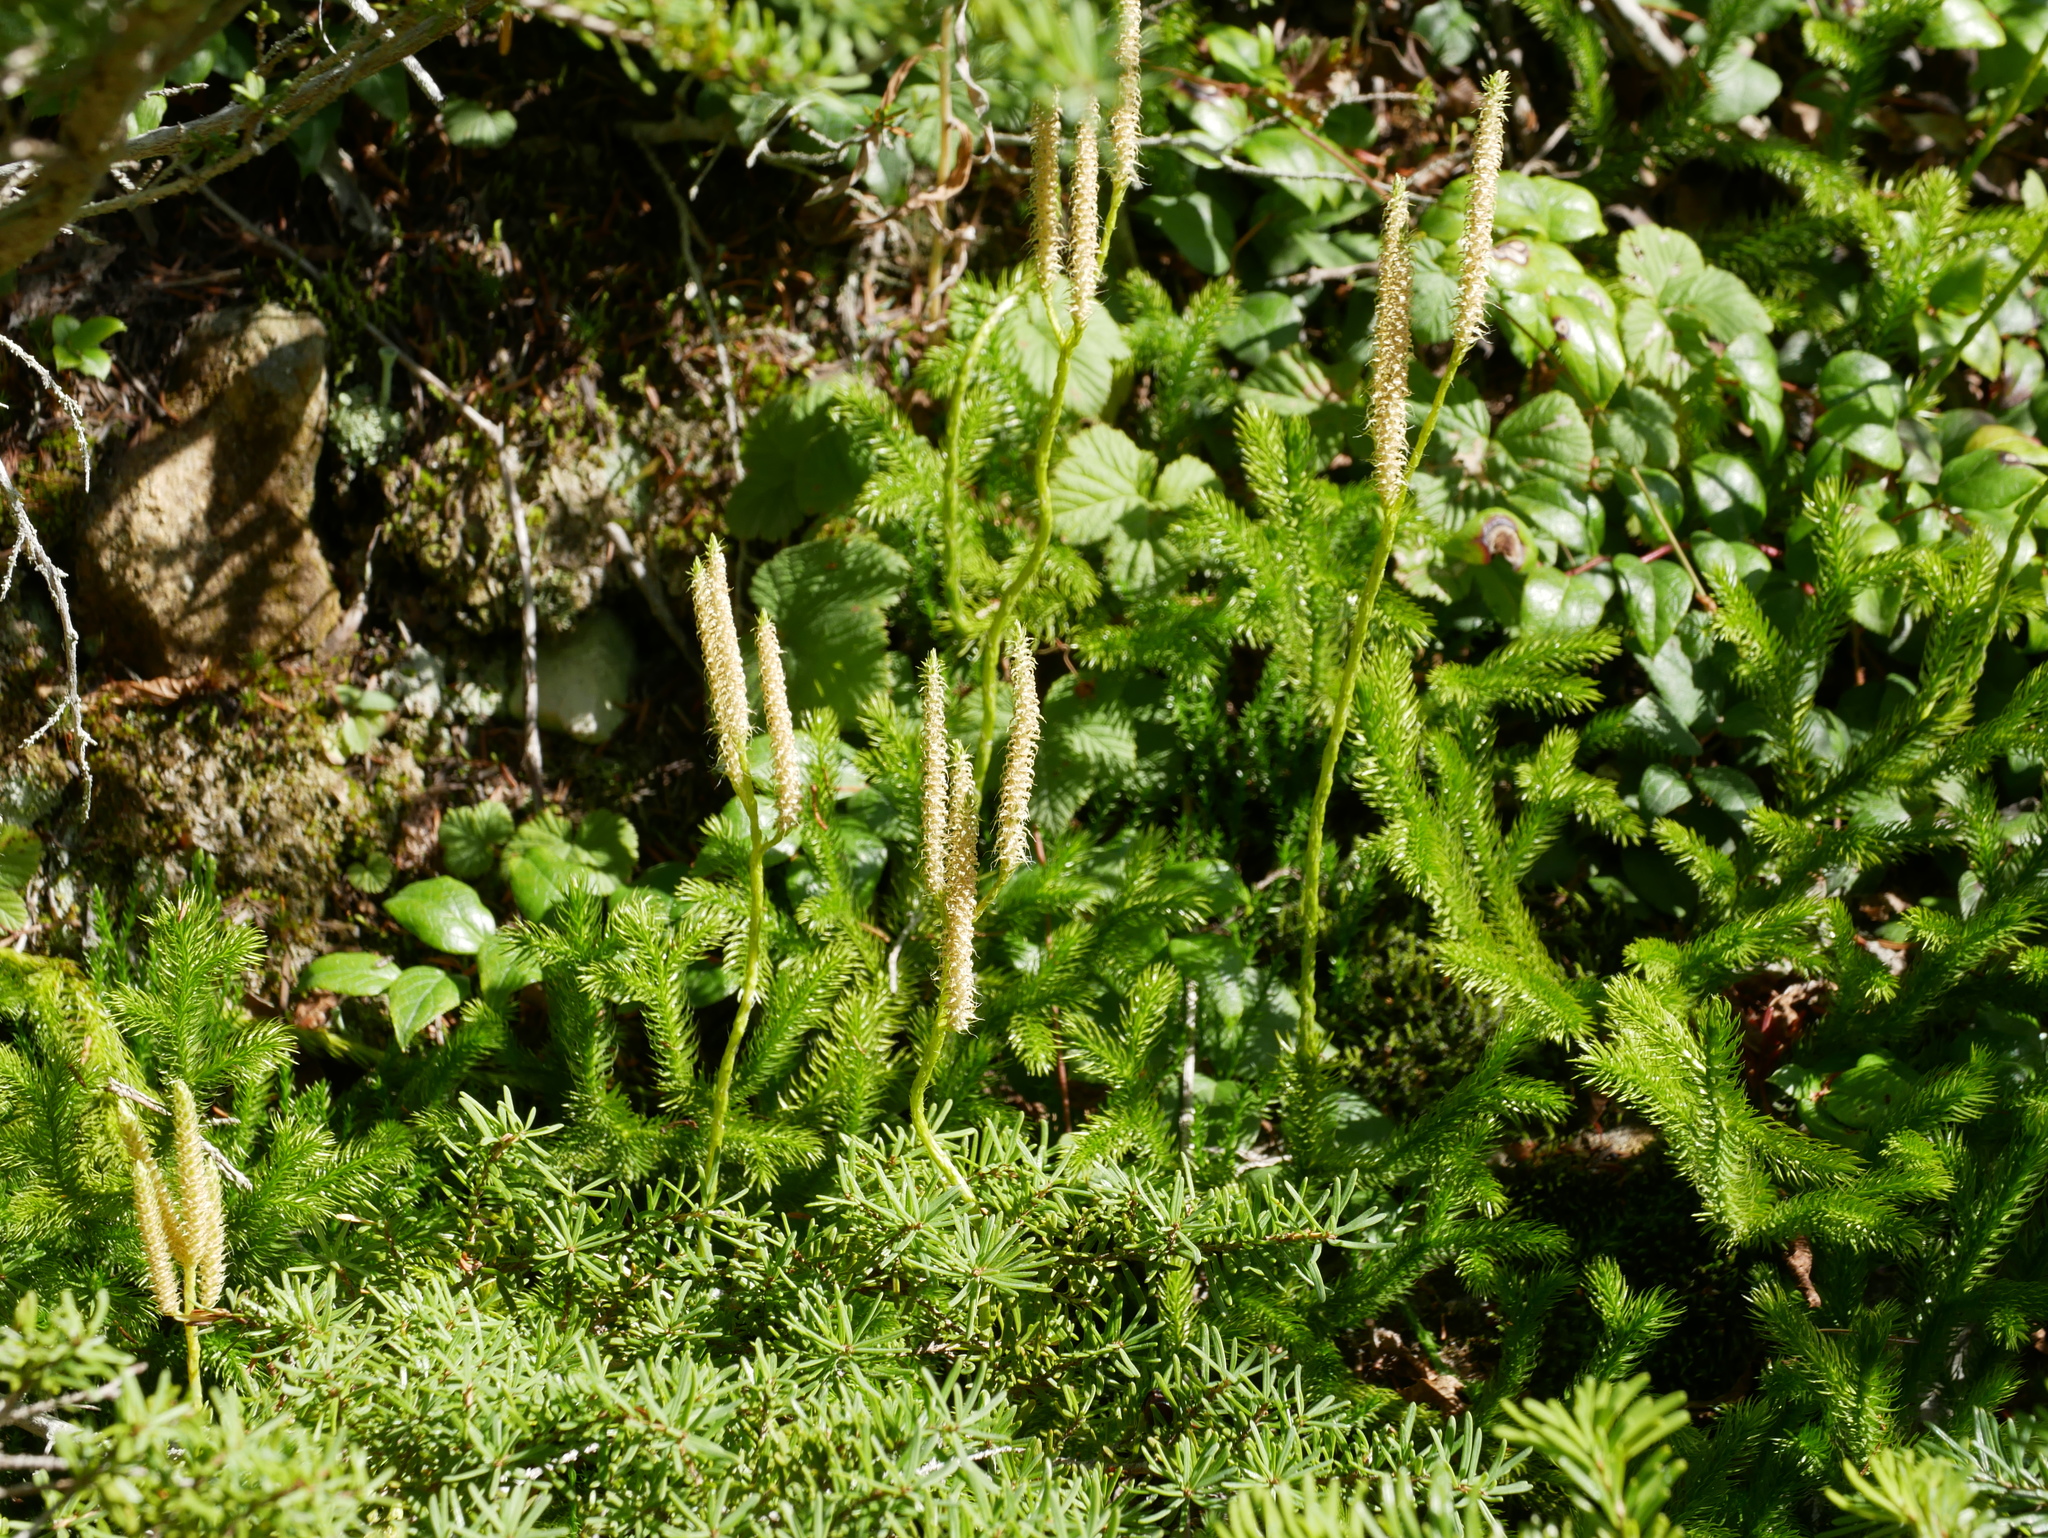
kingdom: Plantae
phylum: Tracheophyta
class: Lycopodiopsida
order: Lycopodiales
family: Lycopodiaceae
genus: Lycopodium
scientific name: Lycopodium clavatum
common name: Stag's-horn clubmoss
